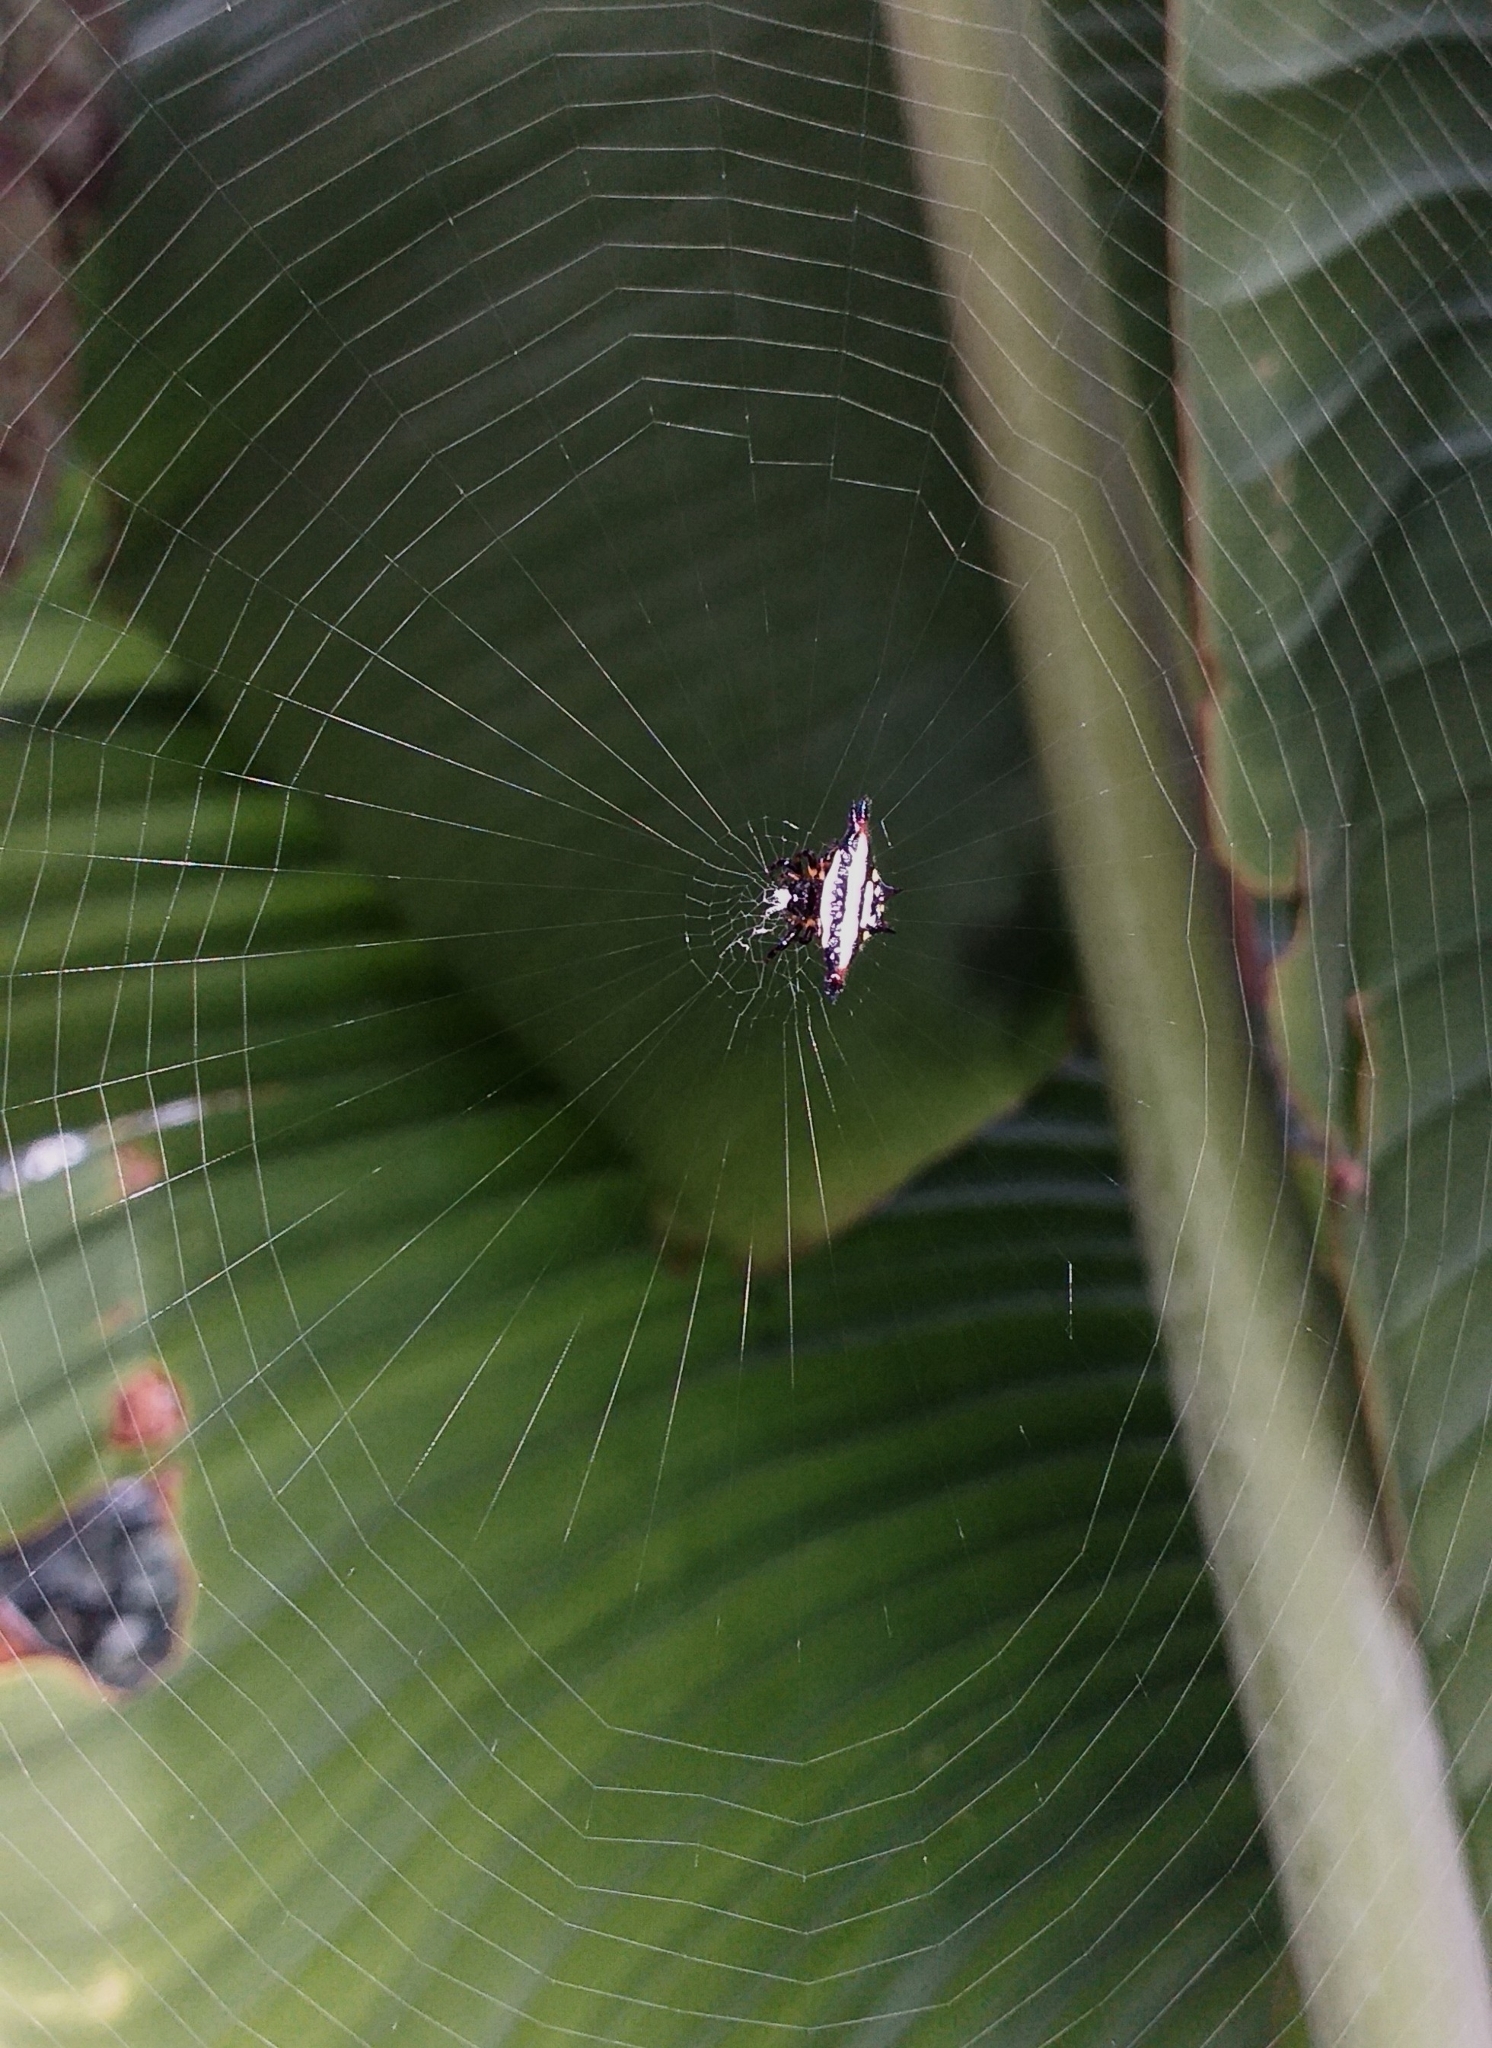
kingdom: Animalia
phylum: Arthropoda
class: Arachnida
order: Araneae
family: Araneidae
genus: Gasteracantha
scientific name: Gasteracantha geminata
